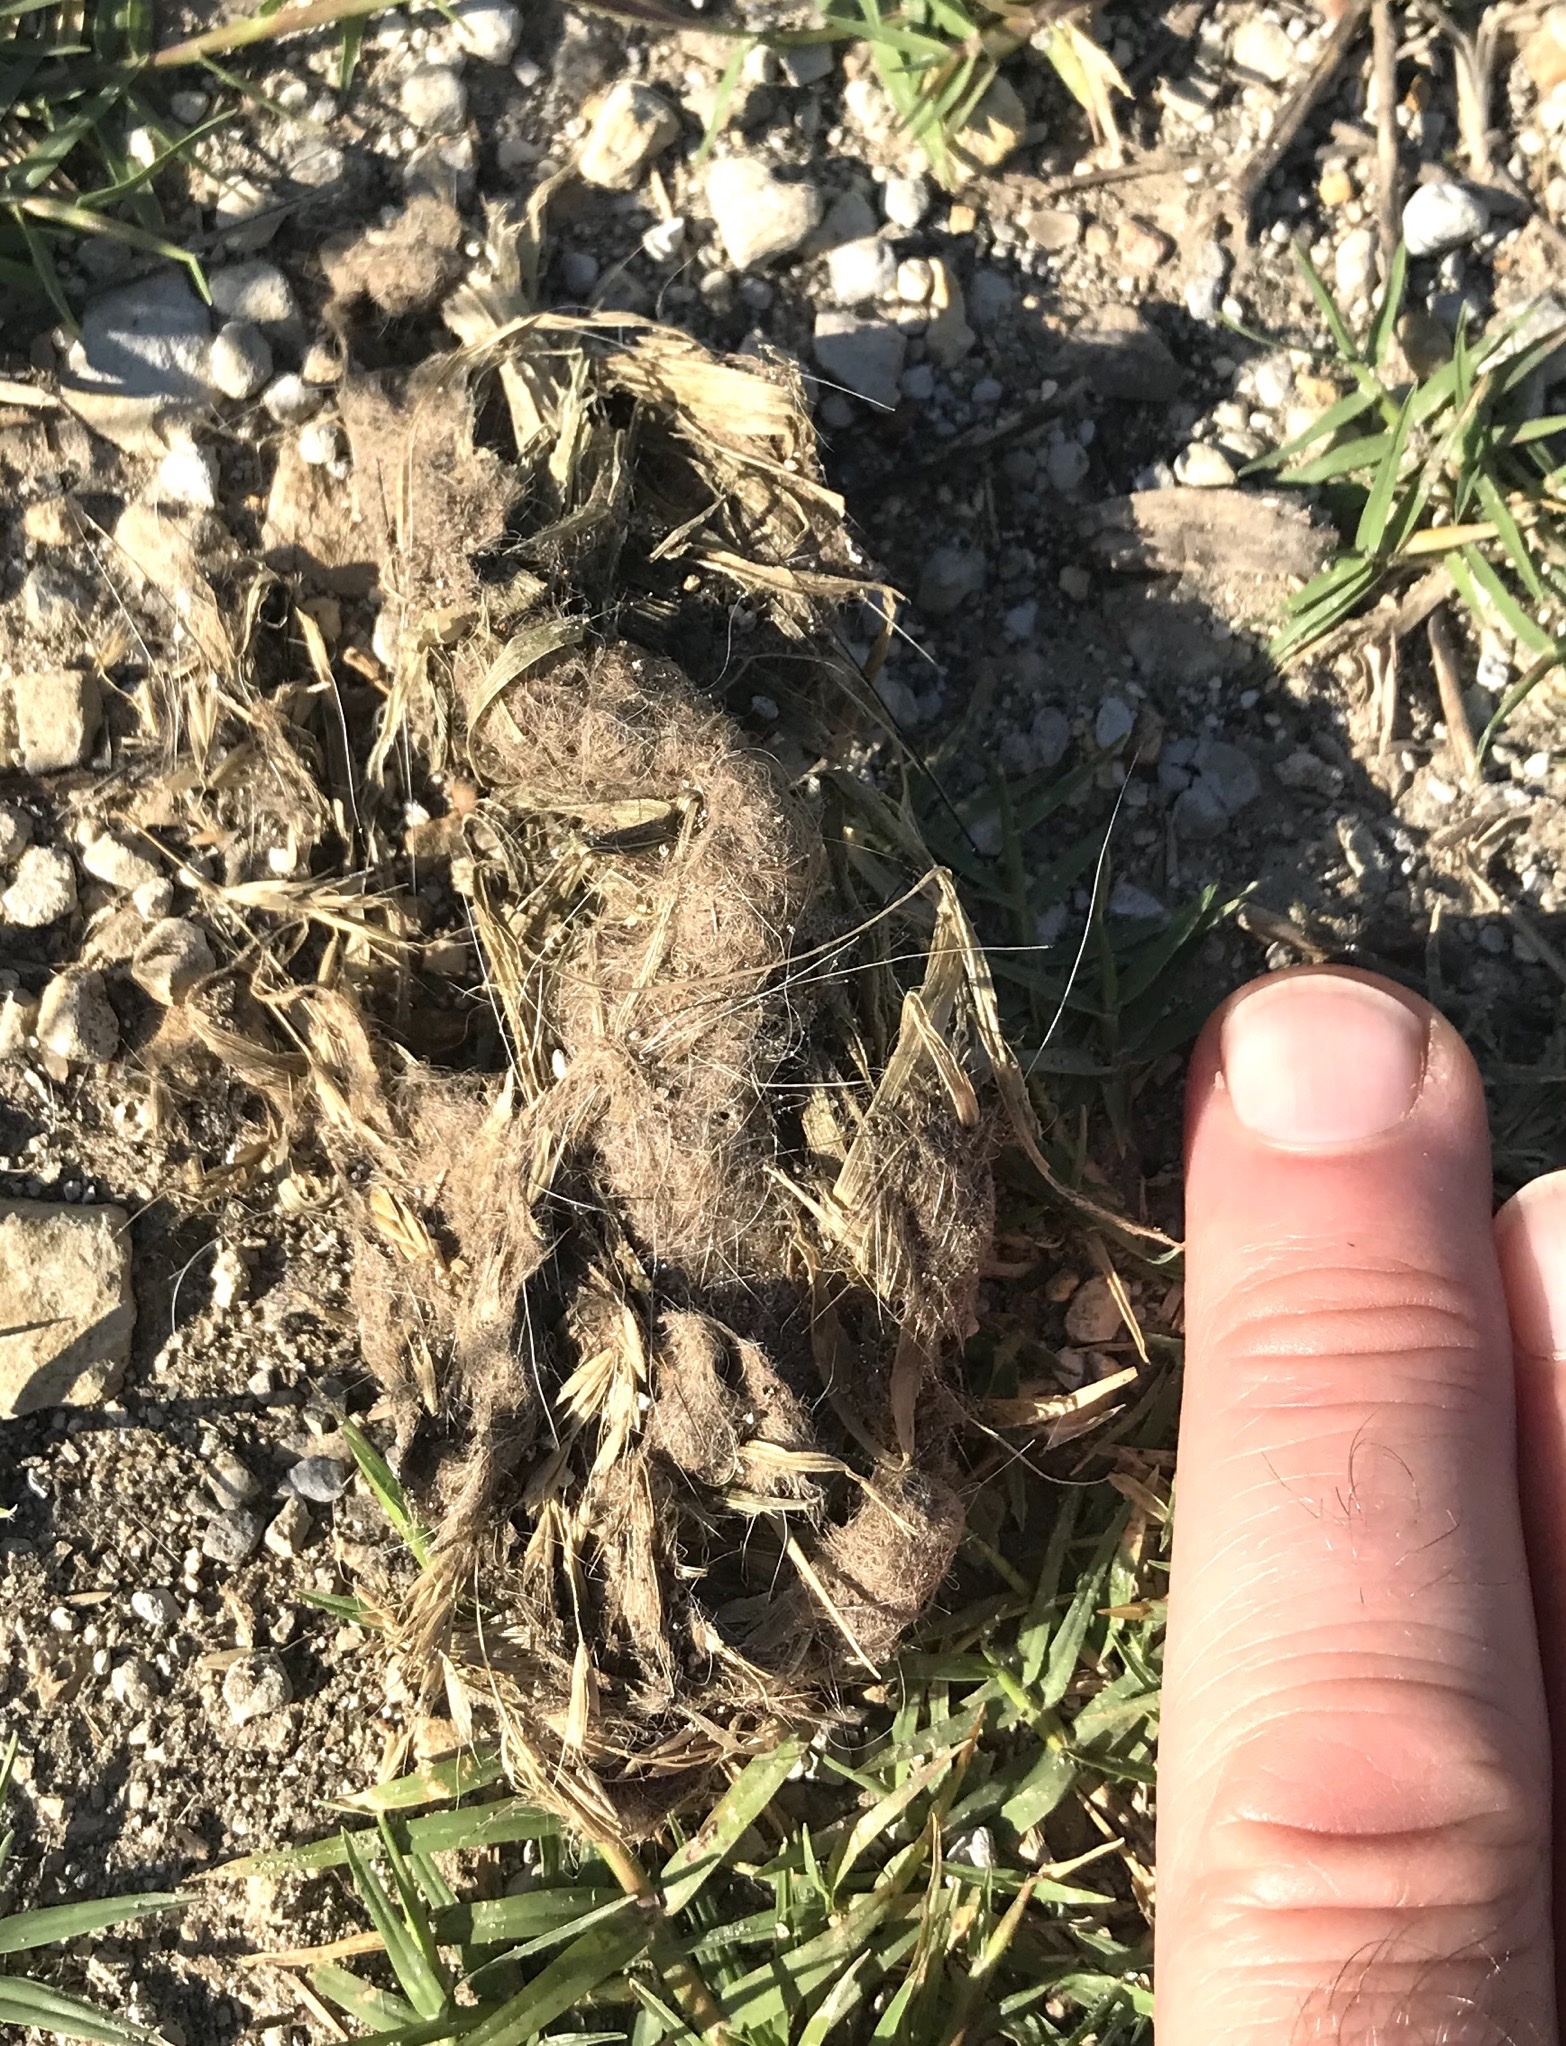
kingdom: Animalia
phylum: Chordata
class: Mammalia
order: Carnivora
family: Canidae
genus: Canis
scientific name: Canis latrans
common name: Coyote
